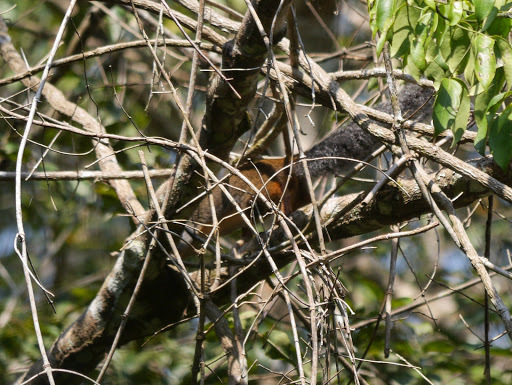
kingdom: Animalia
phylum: Chordata
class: Mammalia
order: Rodentia
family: Sciuridae
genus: Protoxerus
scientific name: Protoxerus stangeri
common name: Forest giant squirrel
